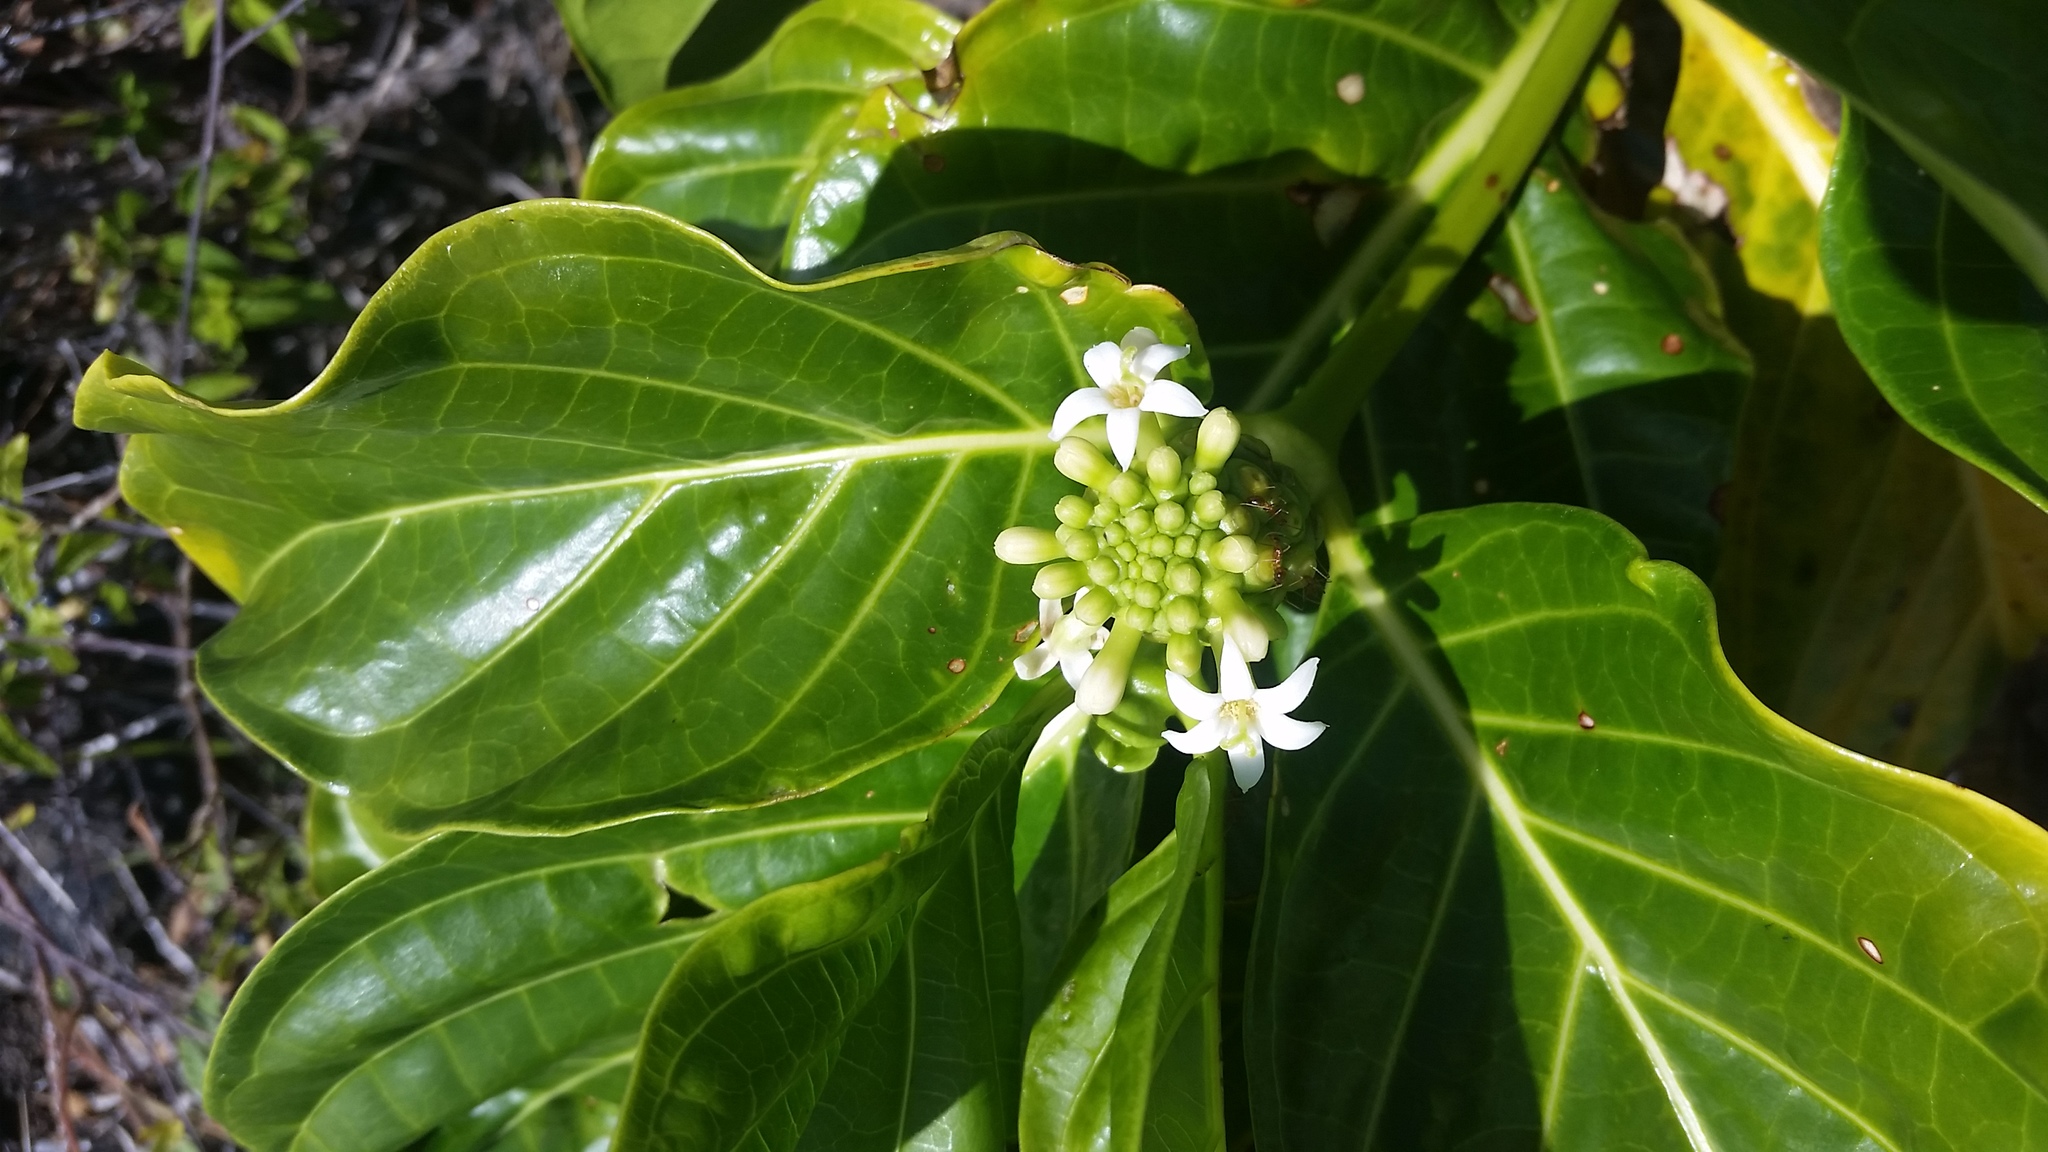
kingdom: Plantae
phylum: Tracheophyta
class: Magnoliopsida
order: Gentianales
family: Rubiaceae
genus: Morinda
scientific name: Morinda citrifolia
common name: Indian-mulberry
